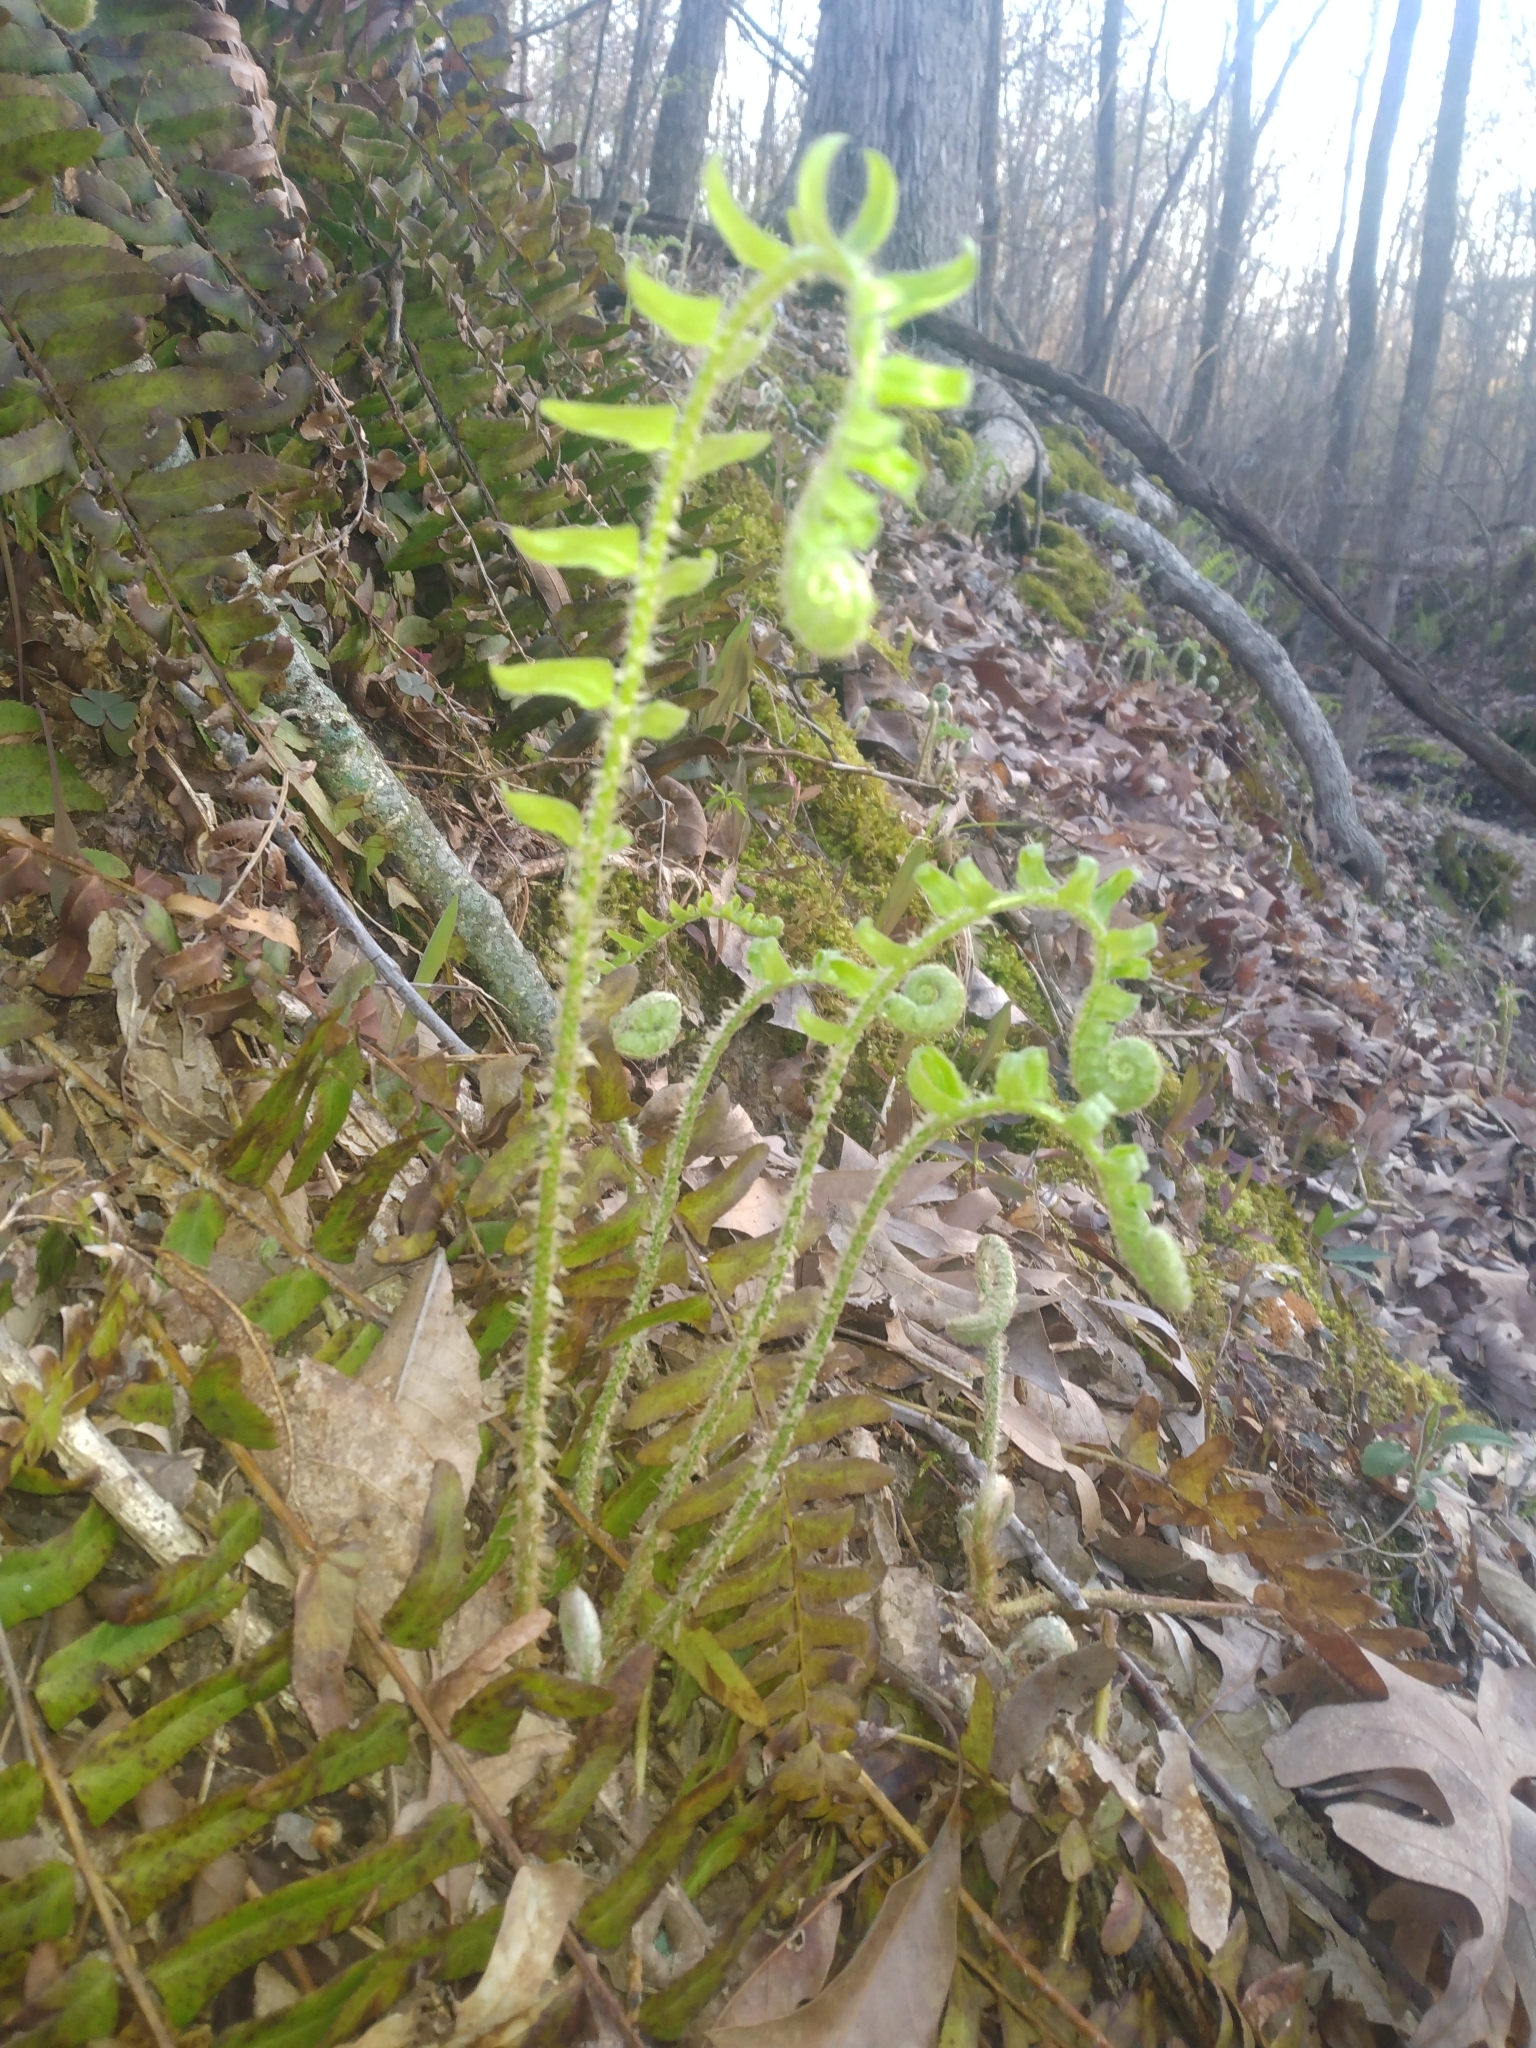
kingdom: Plantae
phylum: Tracheophyta
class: Polypodiopsida
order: Polypodiales
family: Dryopteridaceae
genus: Polystichum
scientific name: Polystichum acrostichoides
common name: Christmas fern
